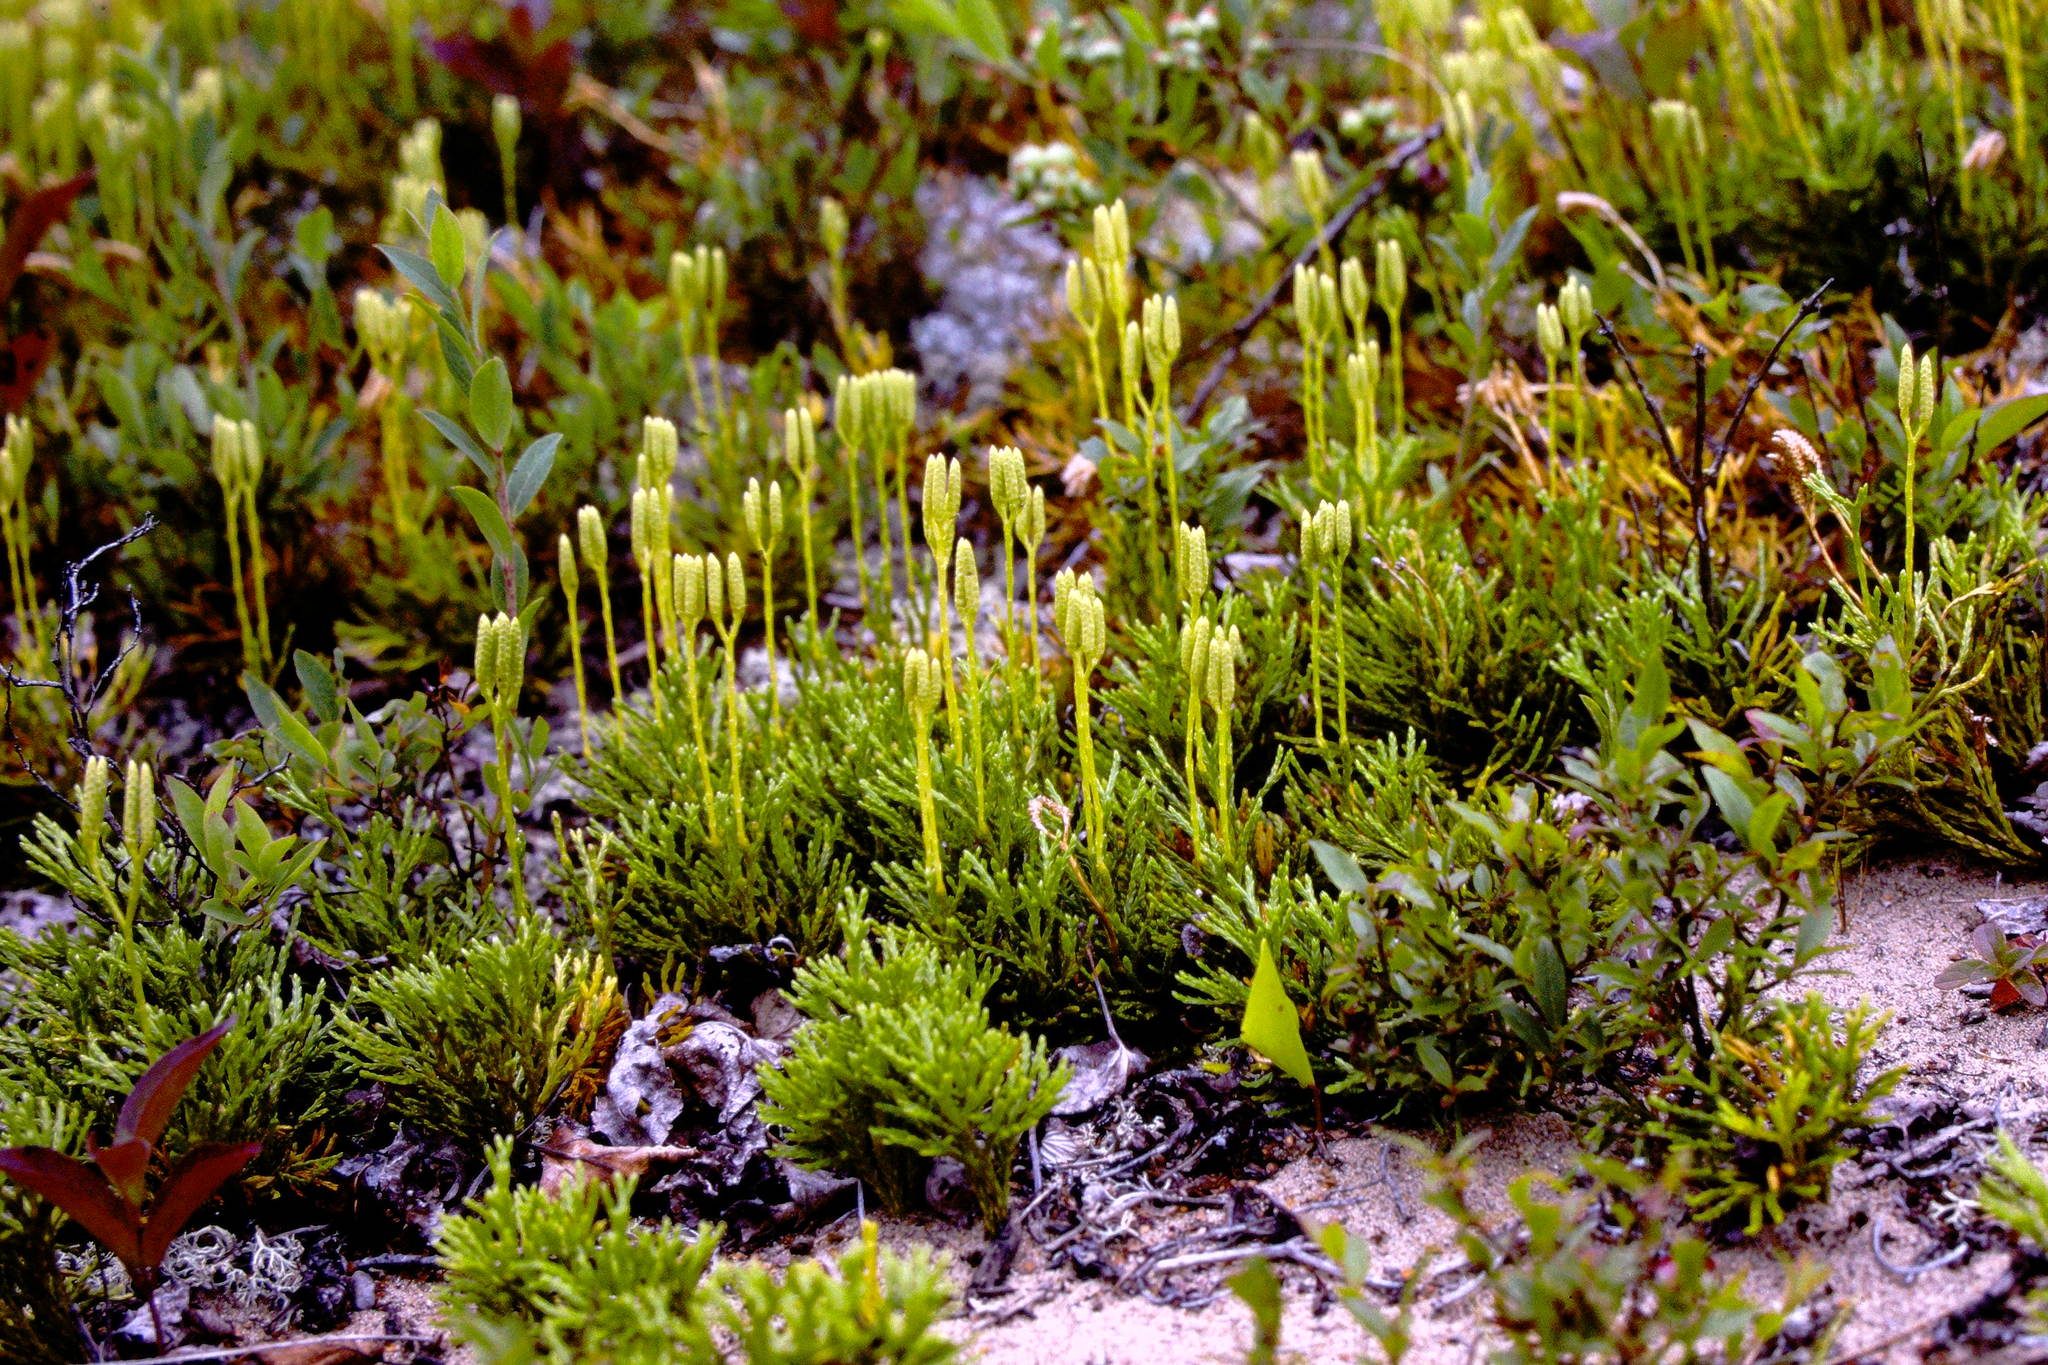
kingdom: Plantae
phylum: Tracheophyta
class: Lycopodiopsida
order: Lycopodiales
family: Lycopodiaceae
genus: Diphasiastrum
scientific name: Diphasiastrum tristachyum
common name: Blue ground-cedar
